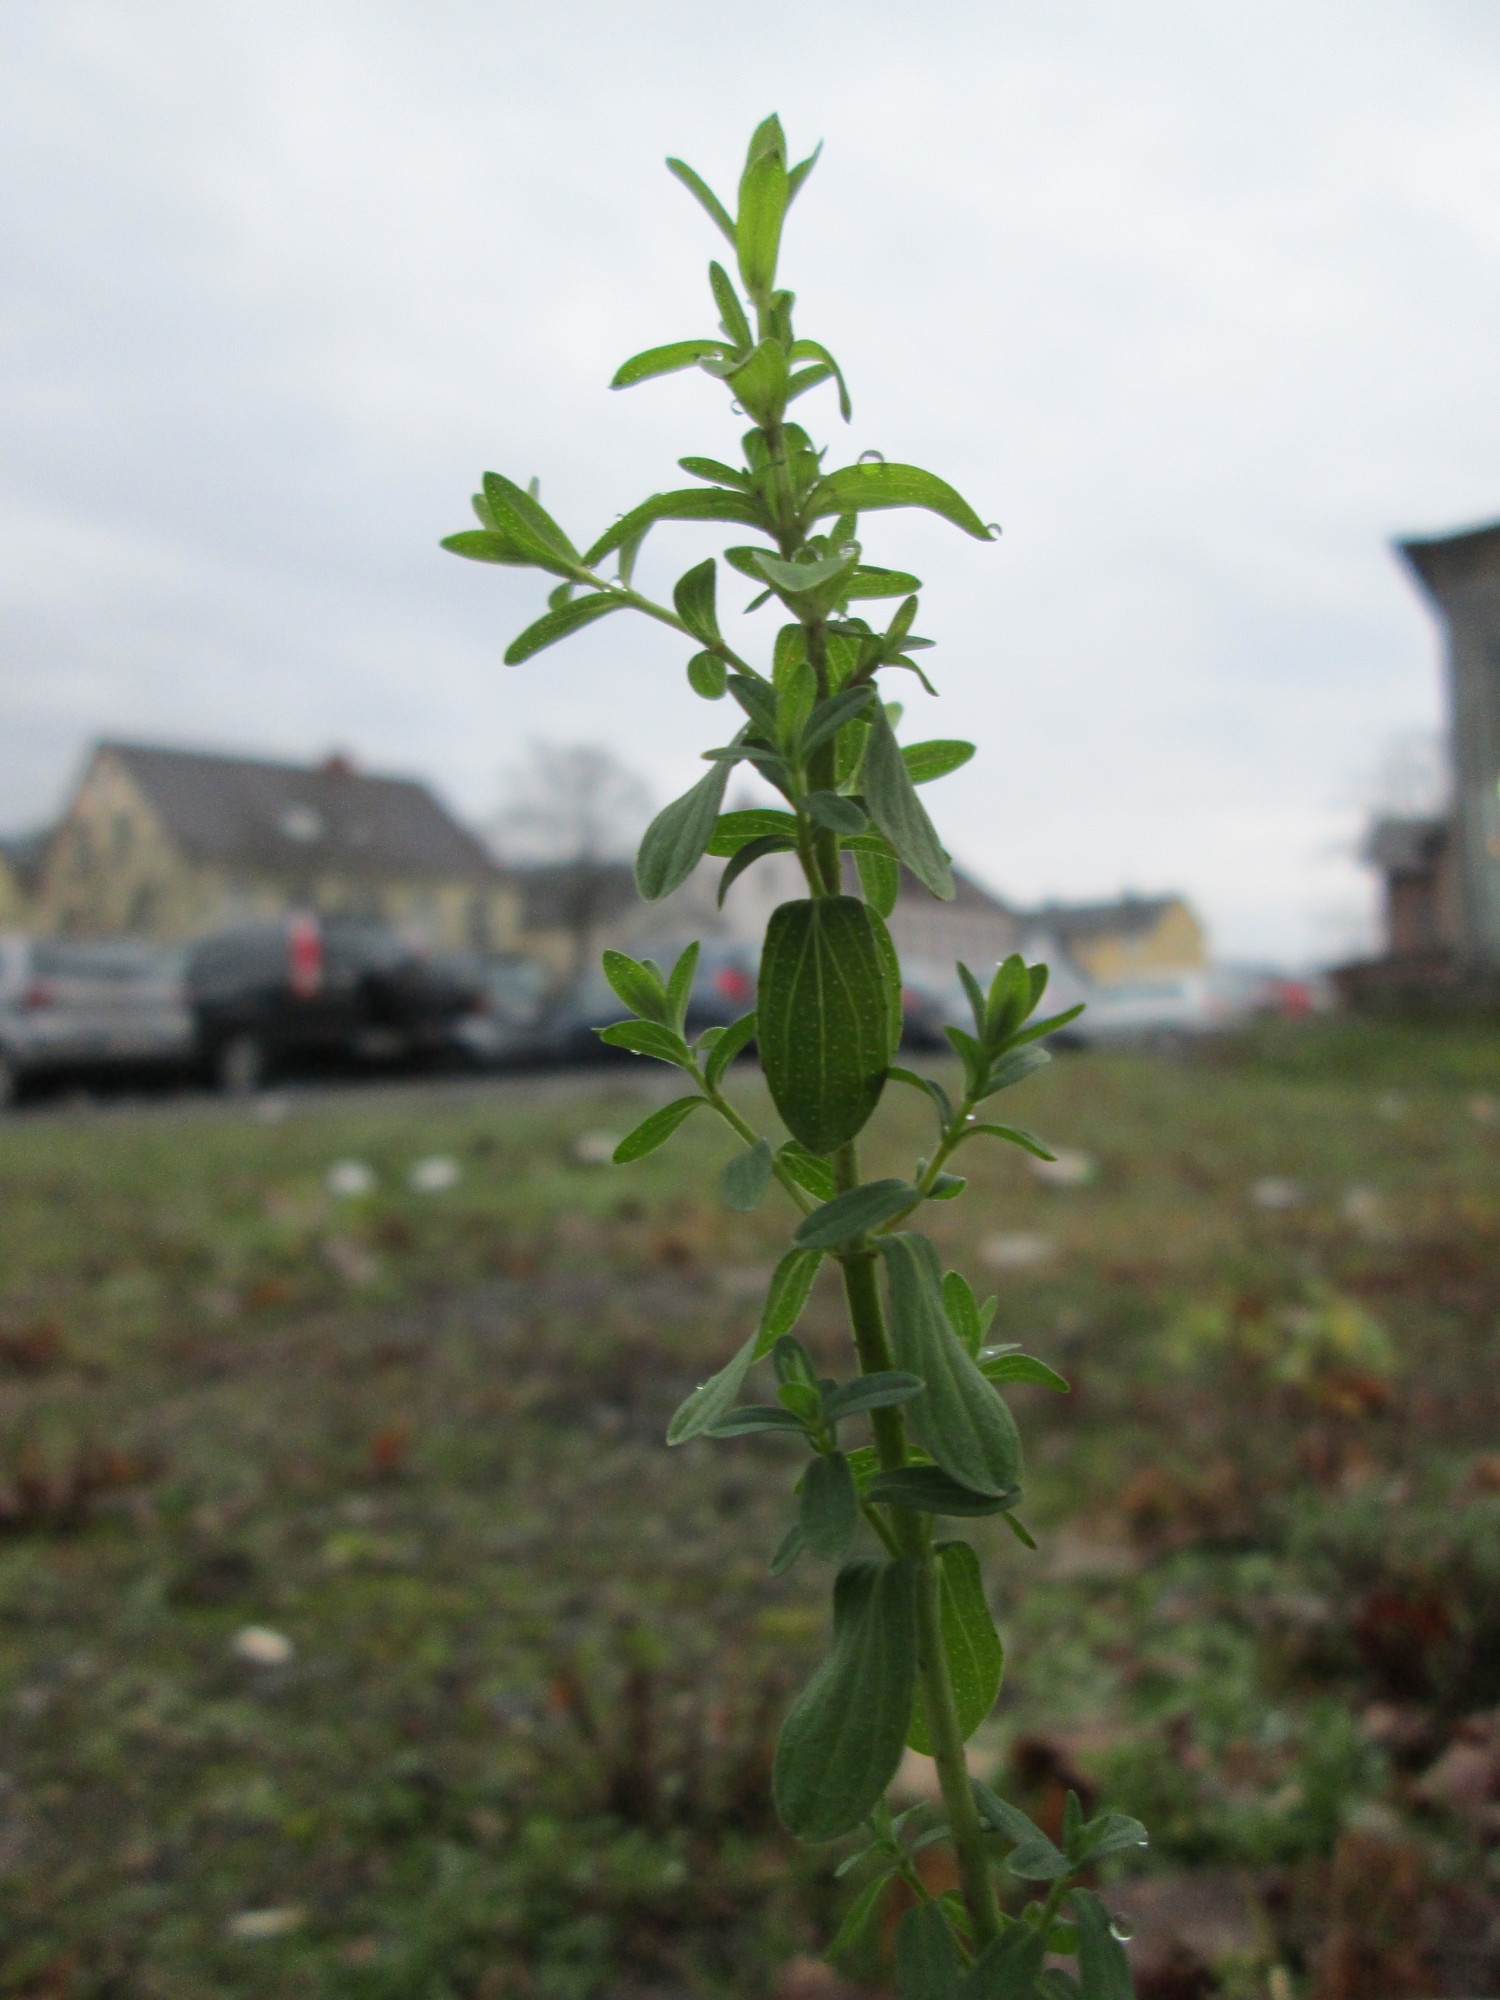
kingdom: Plantae
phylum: Tracheophyta
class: Magnoliopsida
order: Malpighiales
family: Hypericaceae
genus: Hypericum
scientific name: Hypericum perforatum
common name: Common st. johnswort
